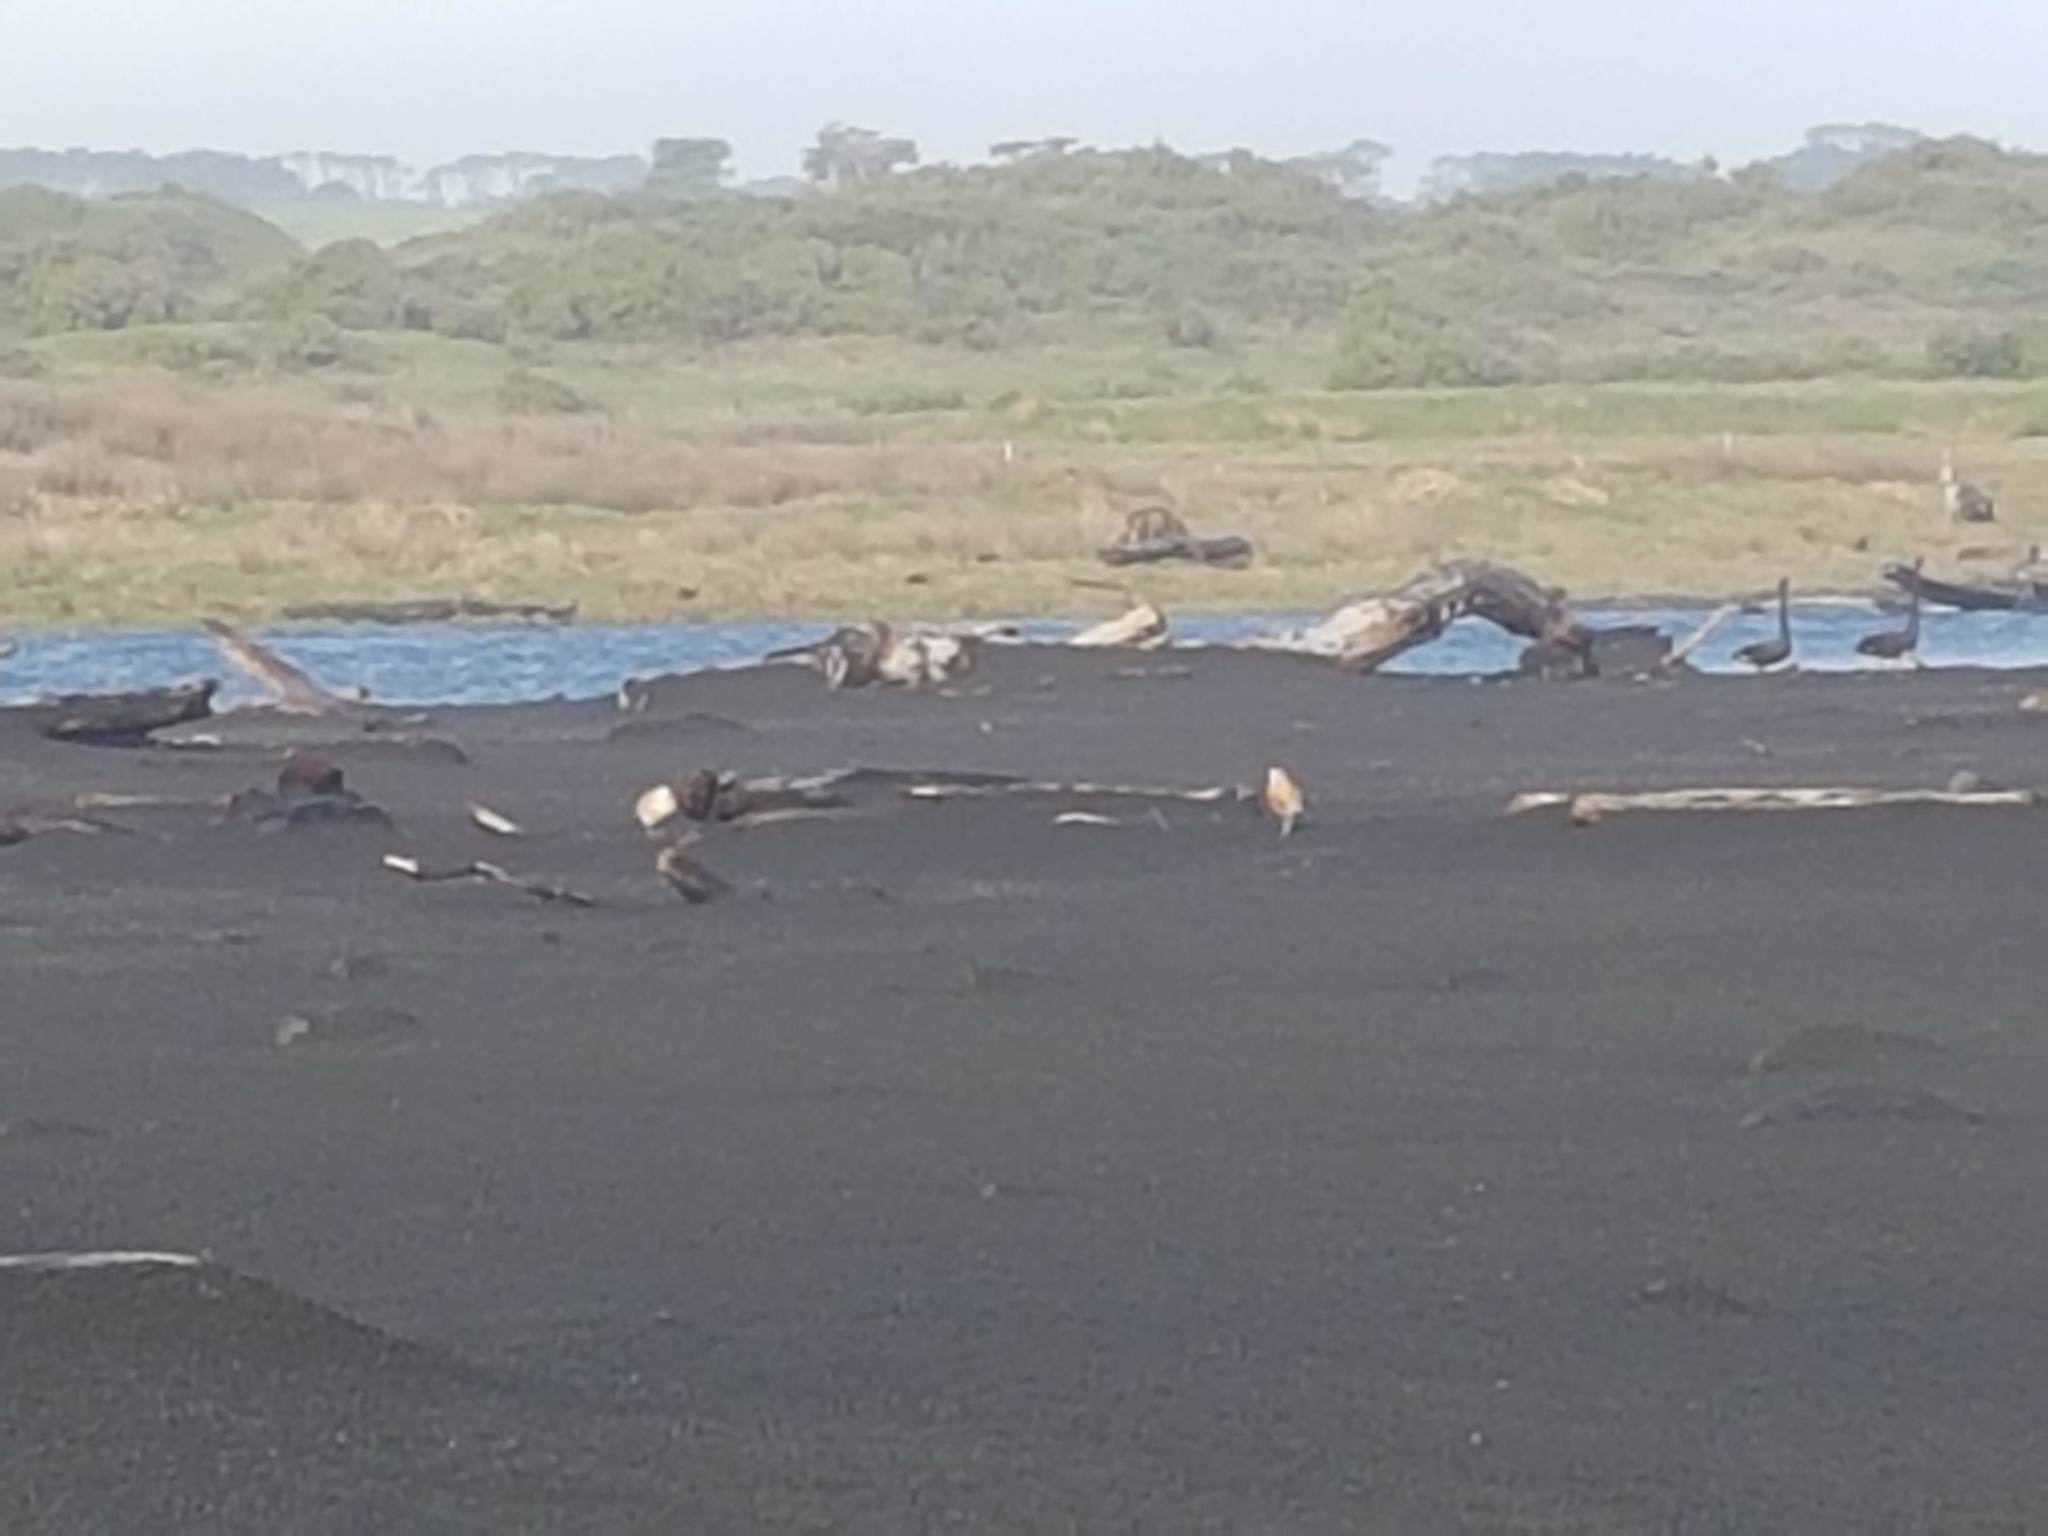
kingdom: Animalia
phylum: Chordata
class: Aves
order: Charadriiformes
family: Charadriidae
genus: Anarhynchus
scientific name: Anarhynchus
